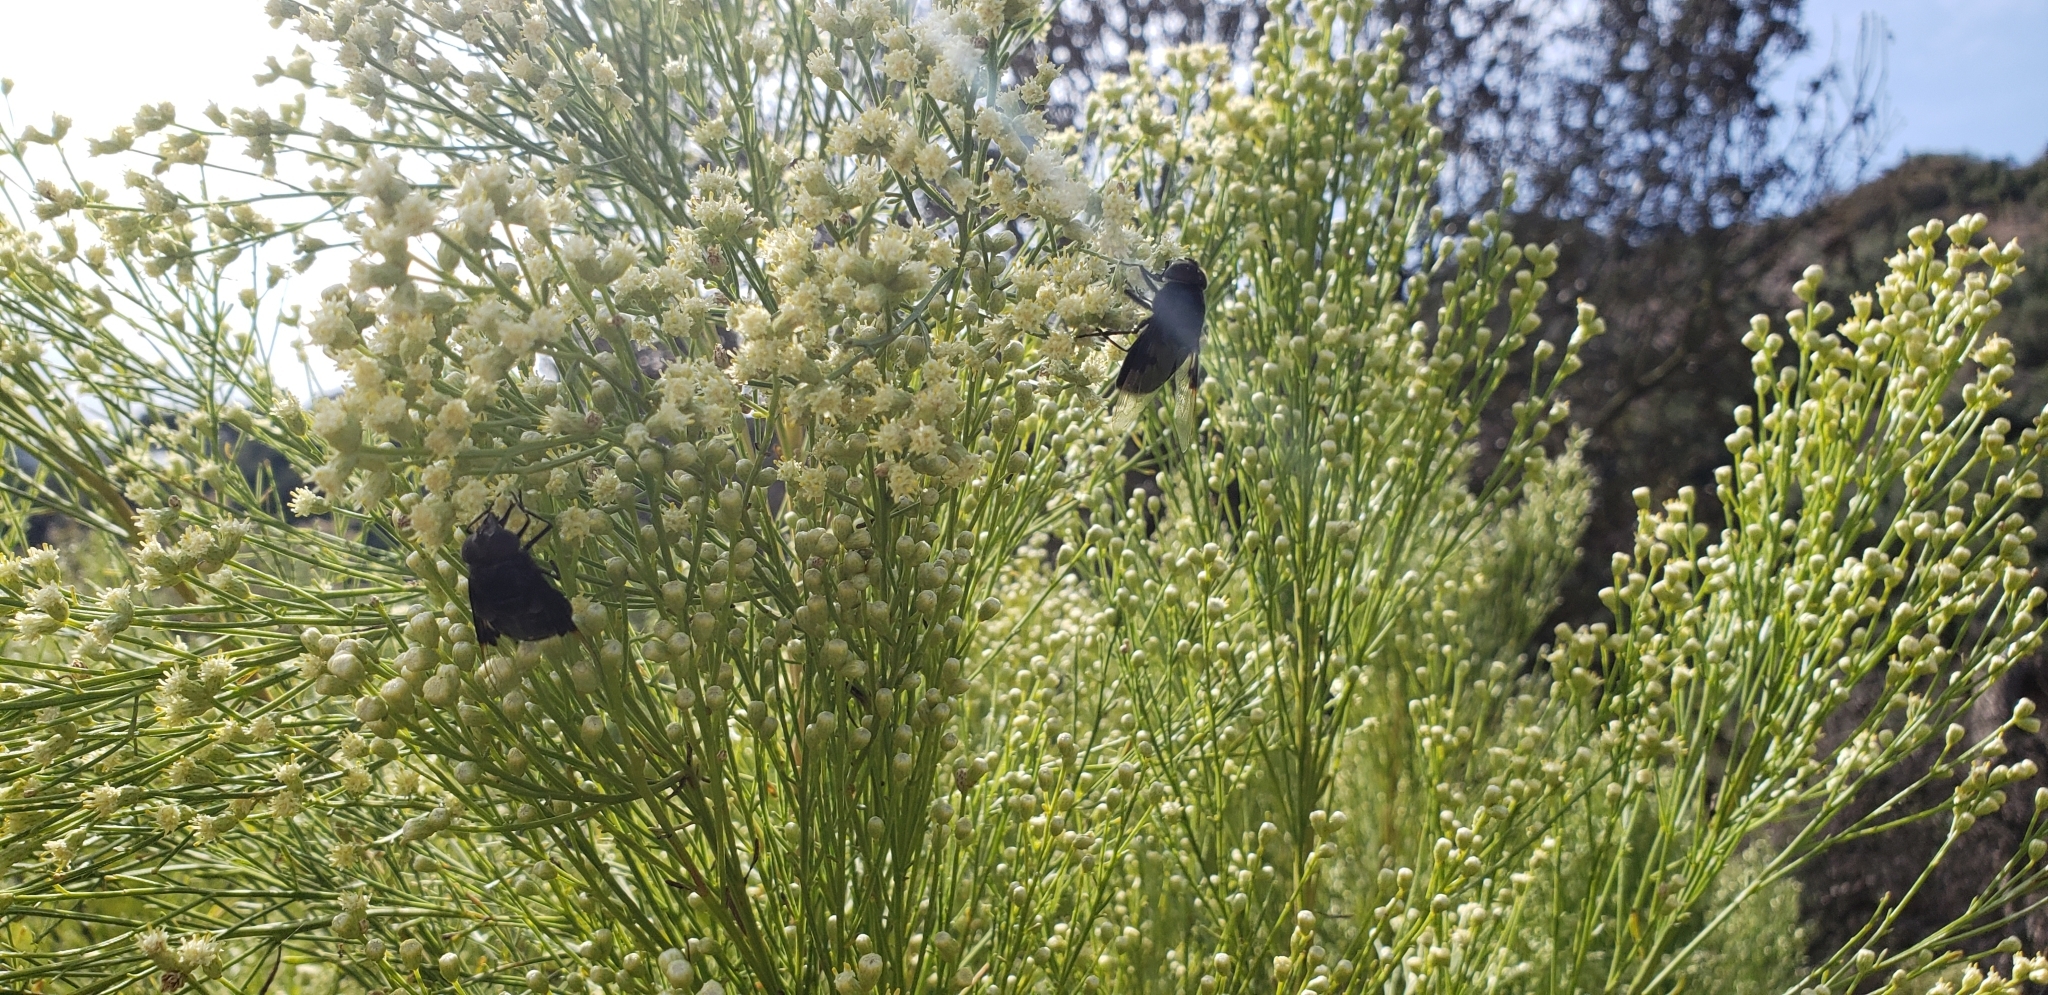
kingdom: Animalia
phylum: Arthropoda
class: Insecta
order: Diptera
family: Syrphidae
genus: Copestylum
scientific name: Copestylum
